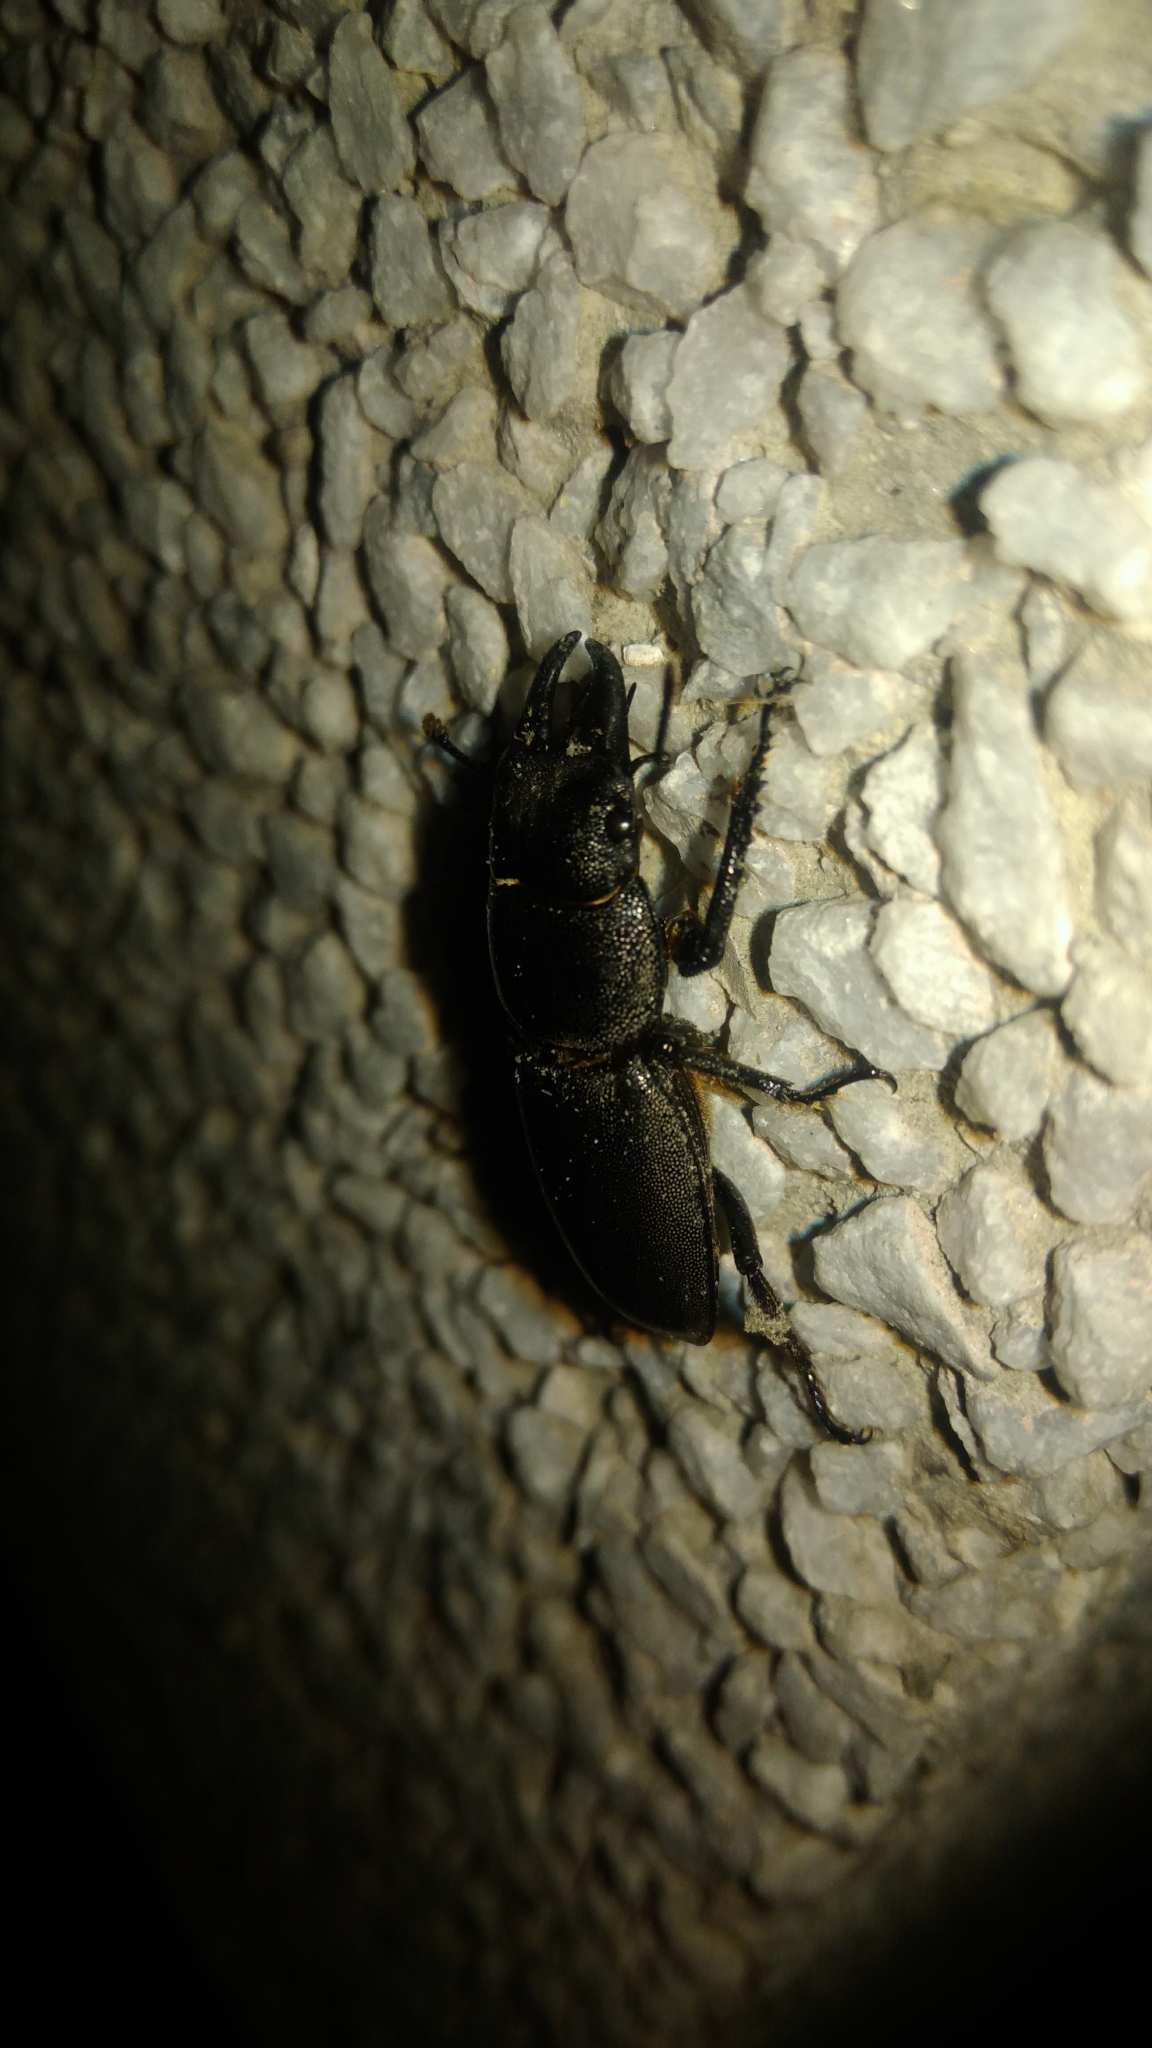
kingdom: Animalia
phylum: Arthropoda
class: Insecta
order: Coleoptera
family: Lucanidae
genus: Serrognathus
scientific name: Serrognathus kyanrauensis
